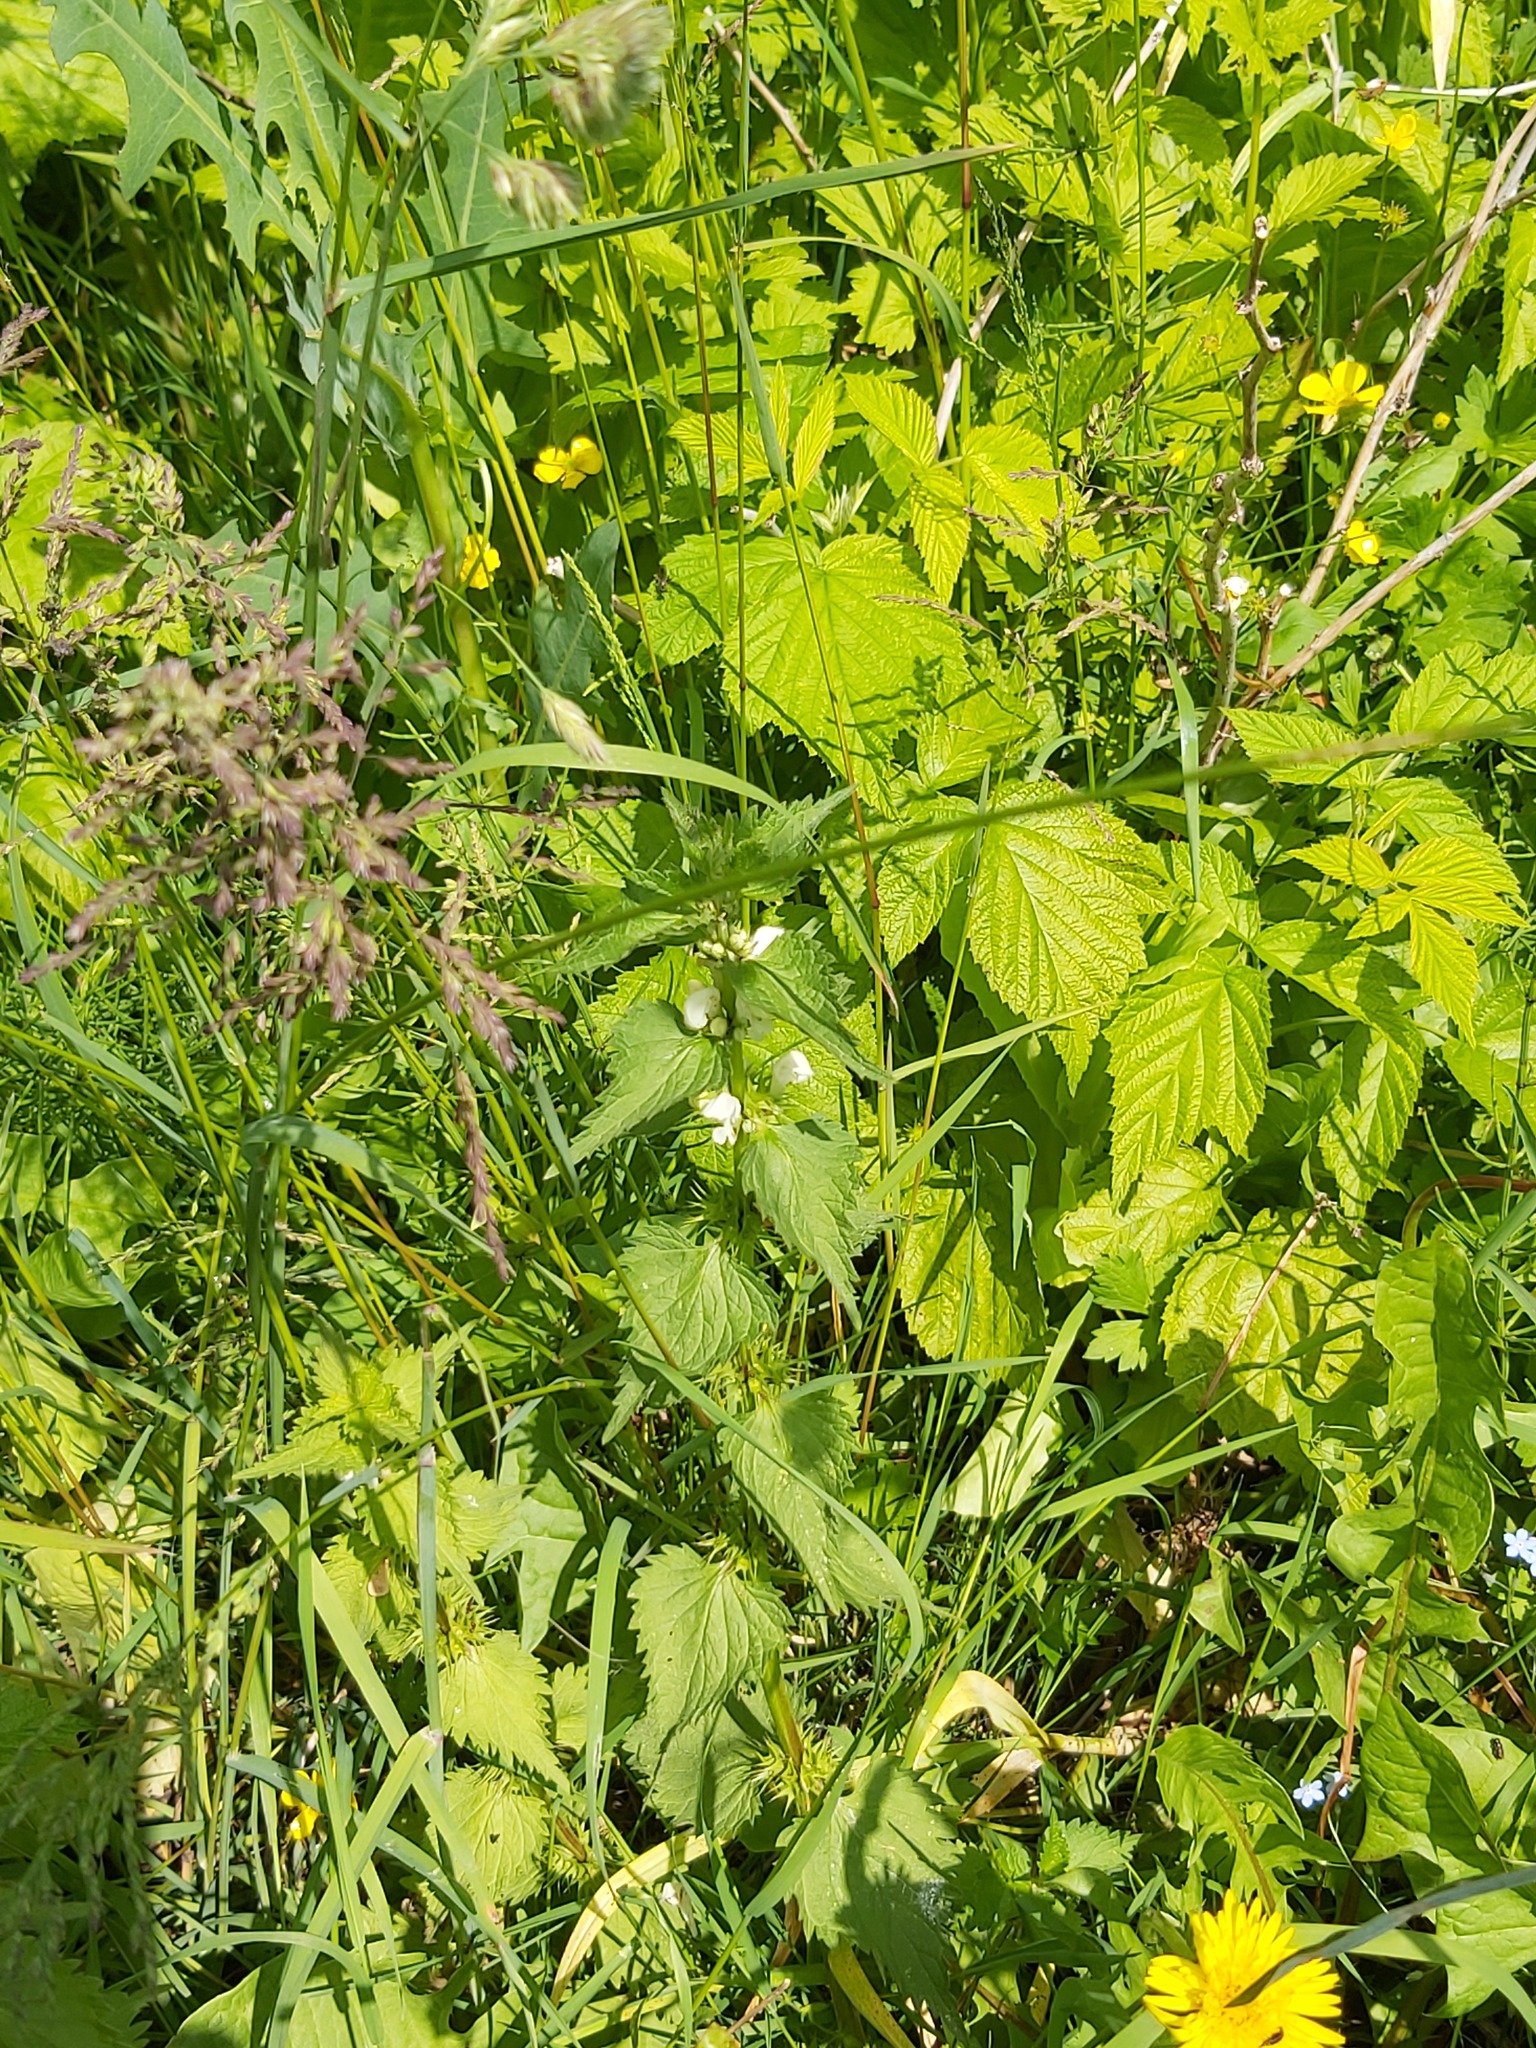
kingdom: Plantae
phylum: Tracheophyta
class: Magnoliopsida
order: Lamiales
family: Lamiaceae
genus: Lamium
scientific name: Lamium album
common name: White dead-nettle
